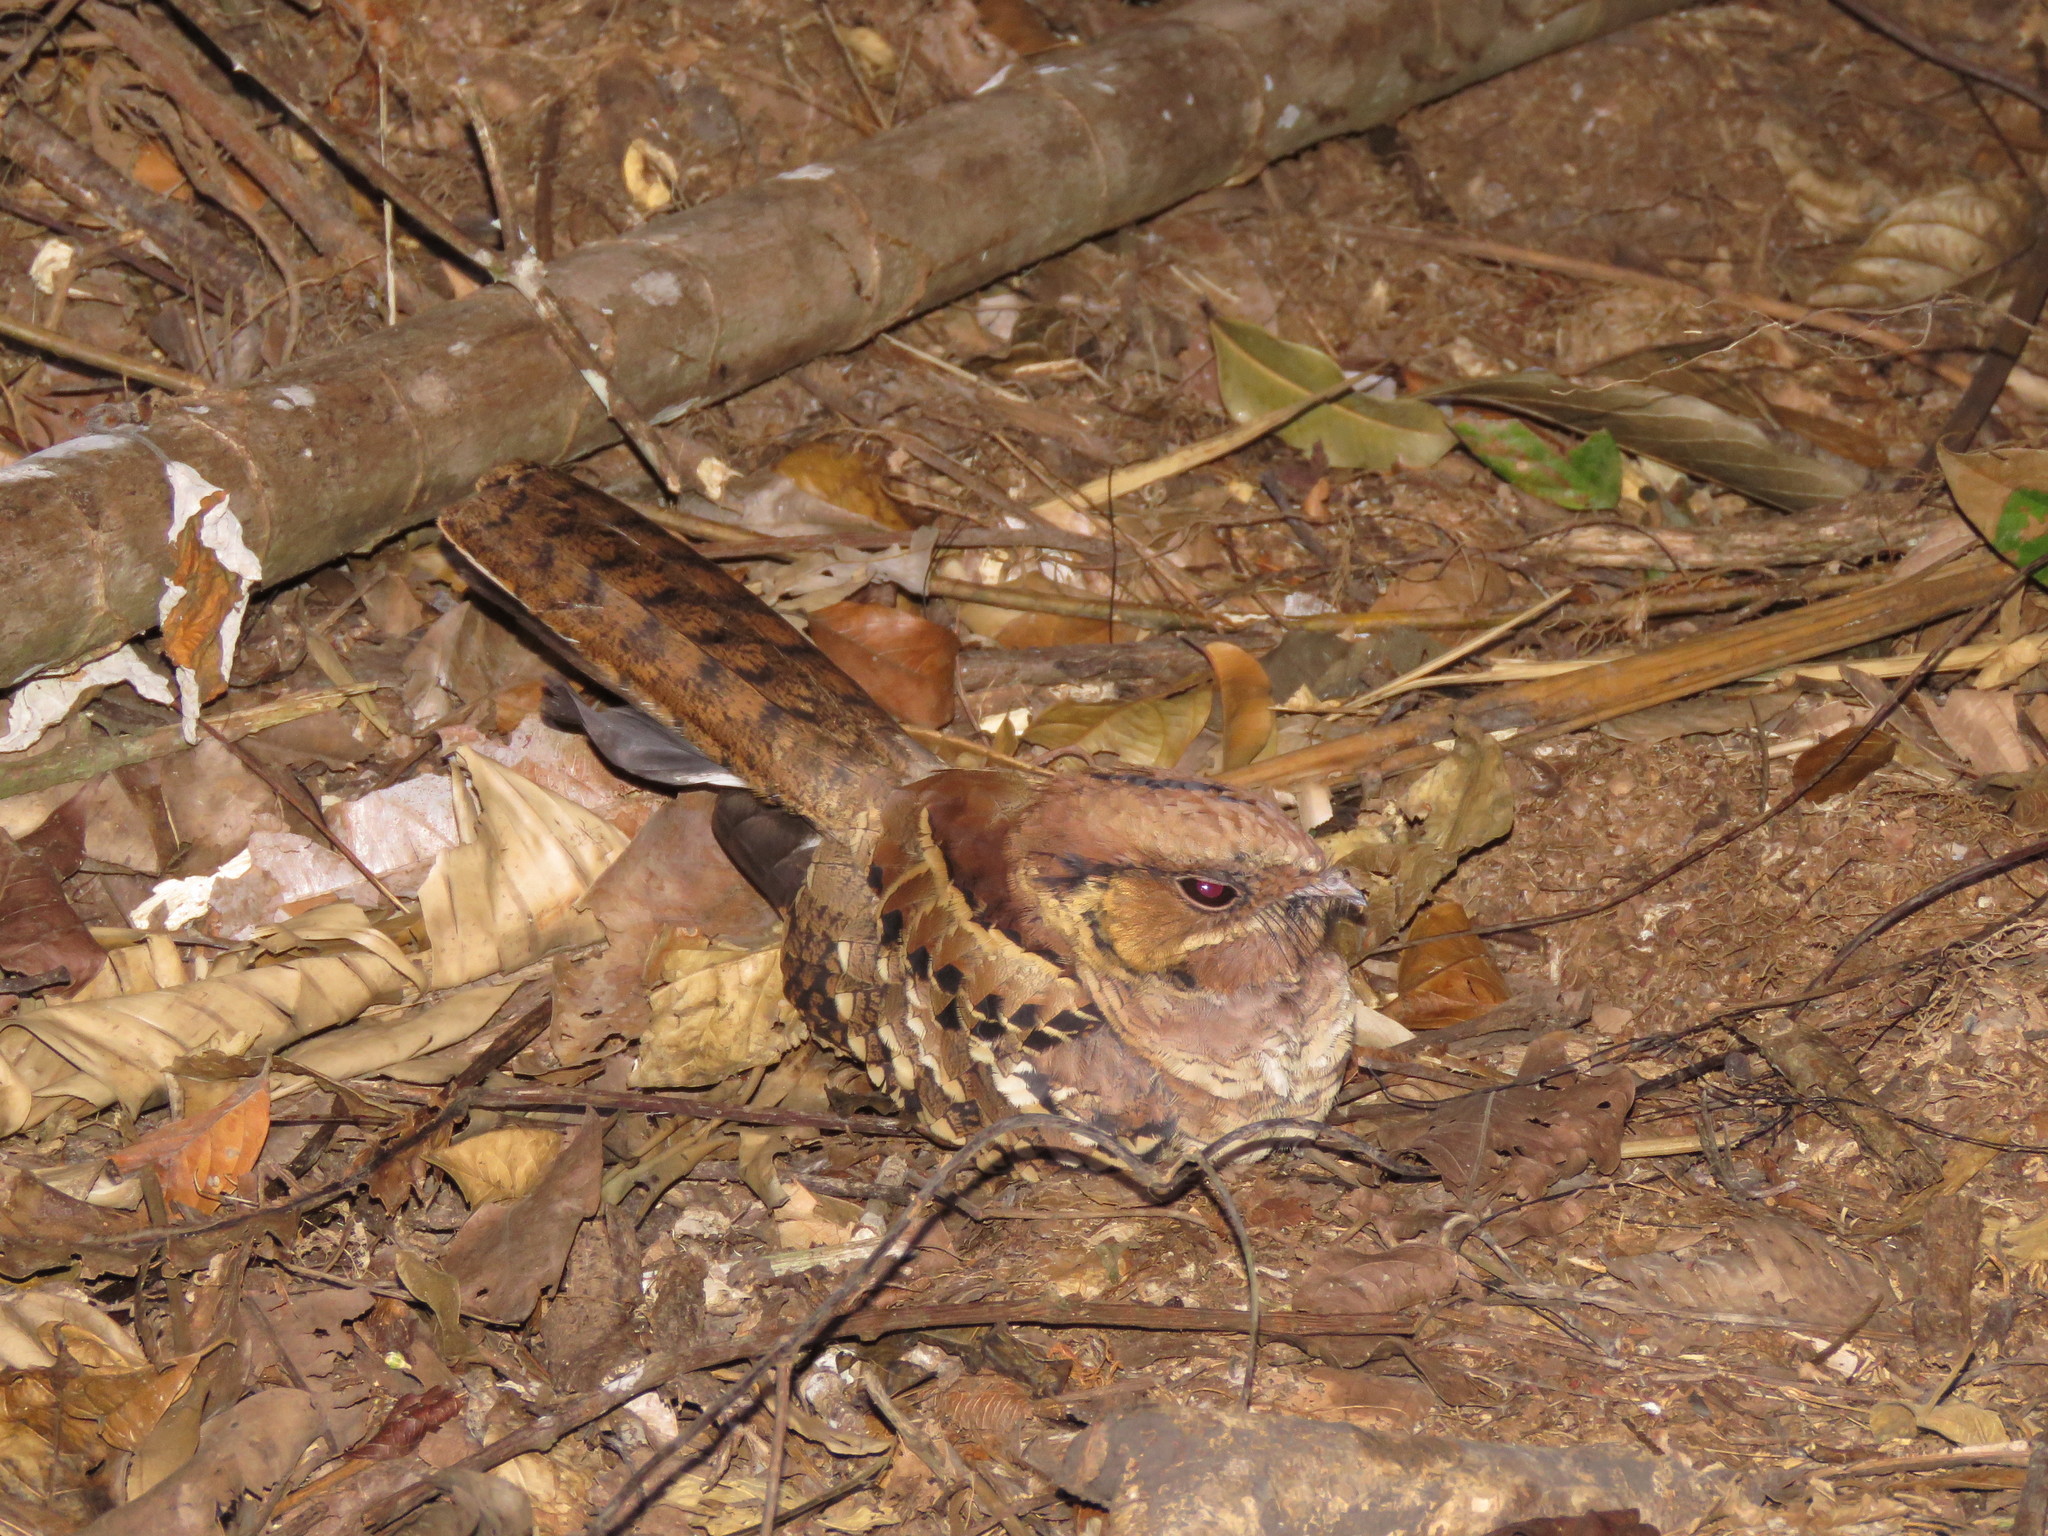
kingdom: Animalia
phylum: Chordata
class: Aves
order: Caprimulgiformes
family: Caprimulgidae
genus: Nyctidromus
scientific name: Nyctidromus albicollis
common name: Pauraque
